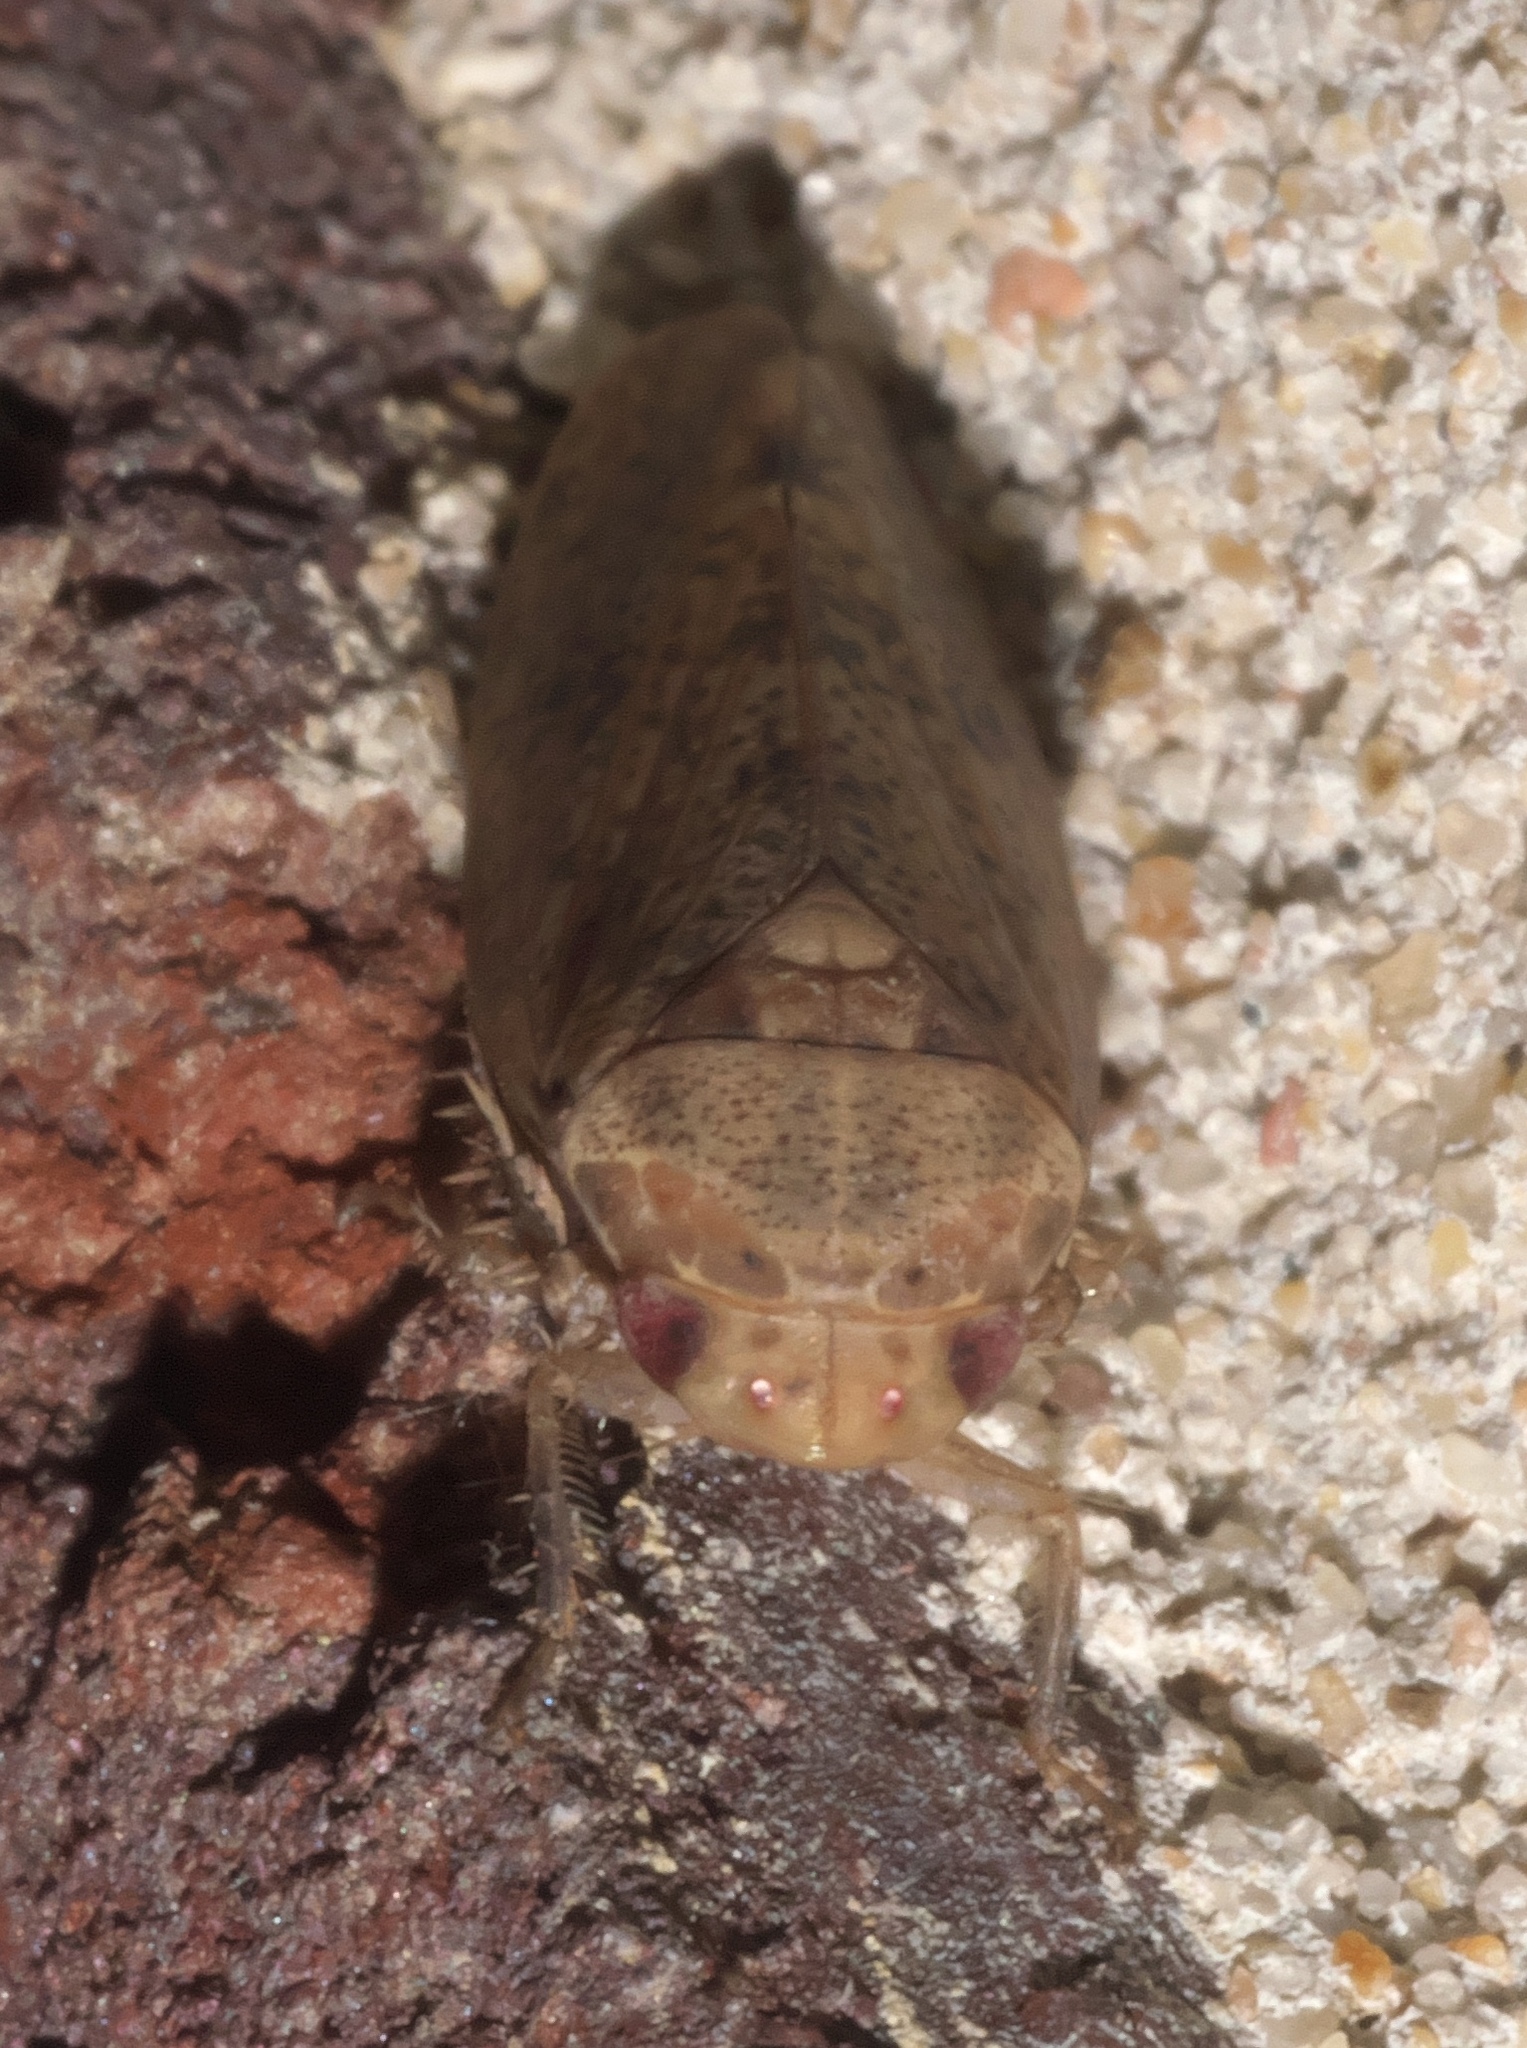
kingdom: Animalia
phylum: Arthropoda
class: Insecta
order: Hemiptera
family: Cicadellidae
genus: Ponana
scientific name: Ponana puncticollis
